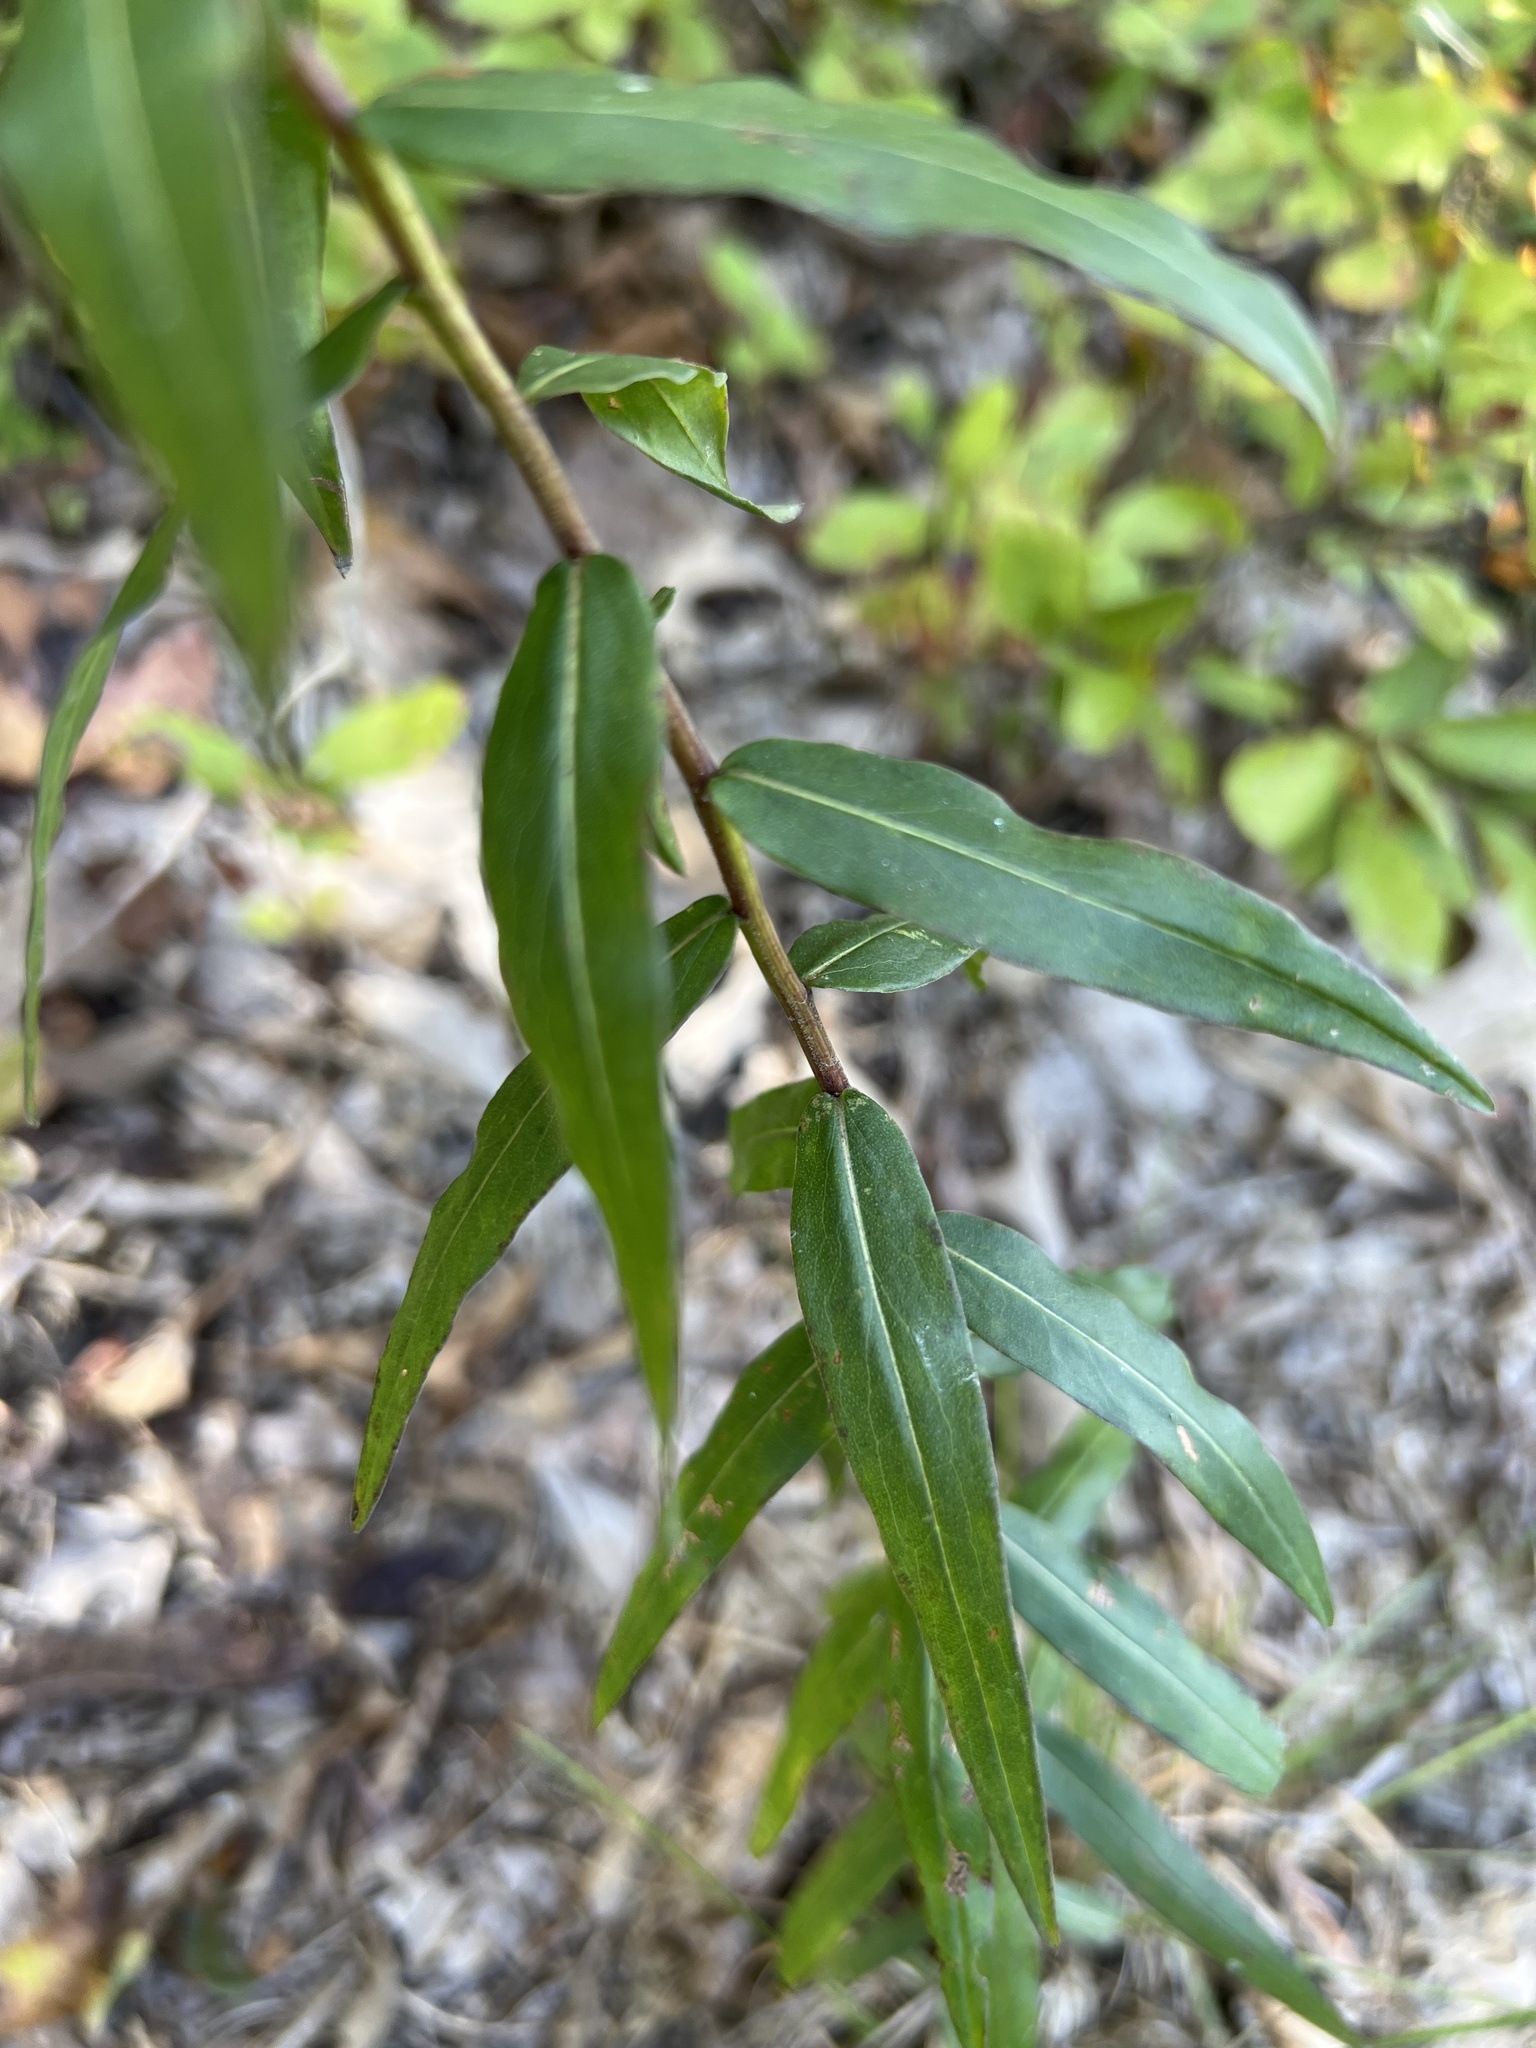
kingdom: Plantae
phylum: Tracheophyta
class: Magnoliopsida
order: Asterales
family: Asteraceae
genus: Solidago
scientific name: Solidago odora
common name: Anise-scented goldenrod
